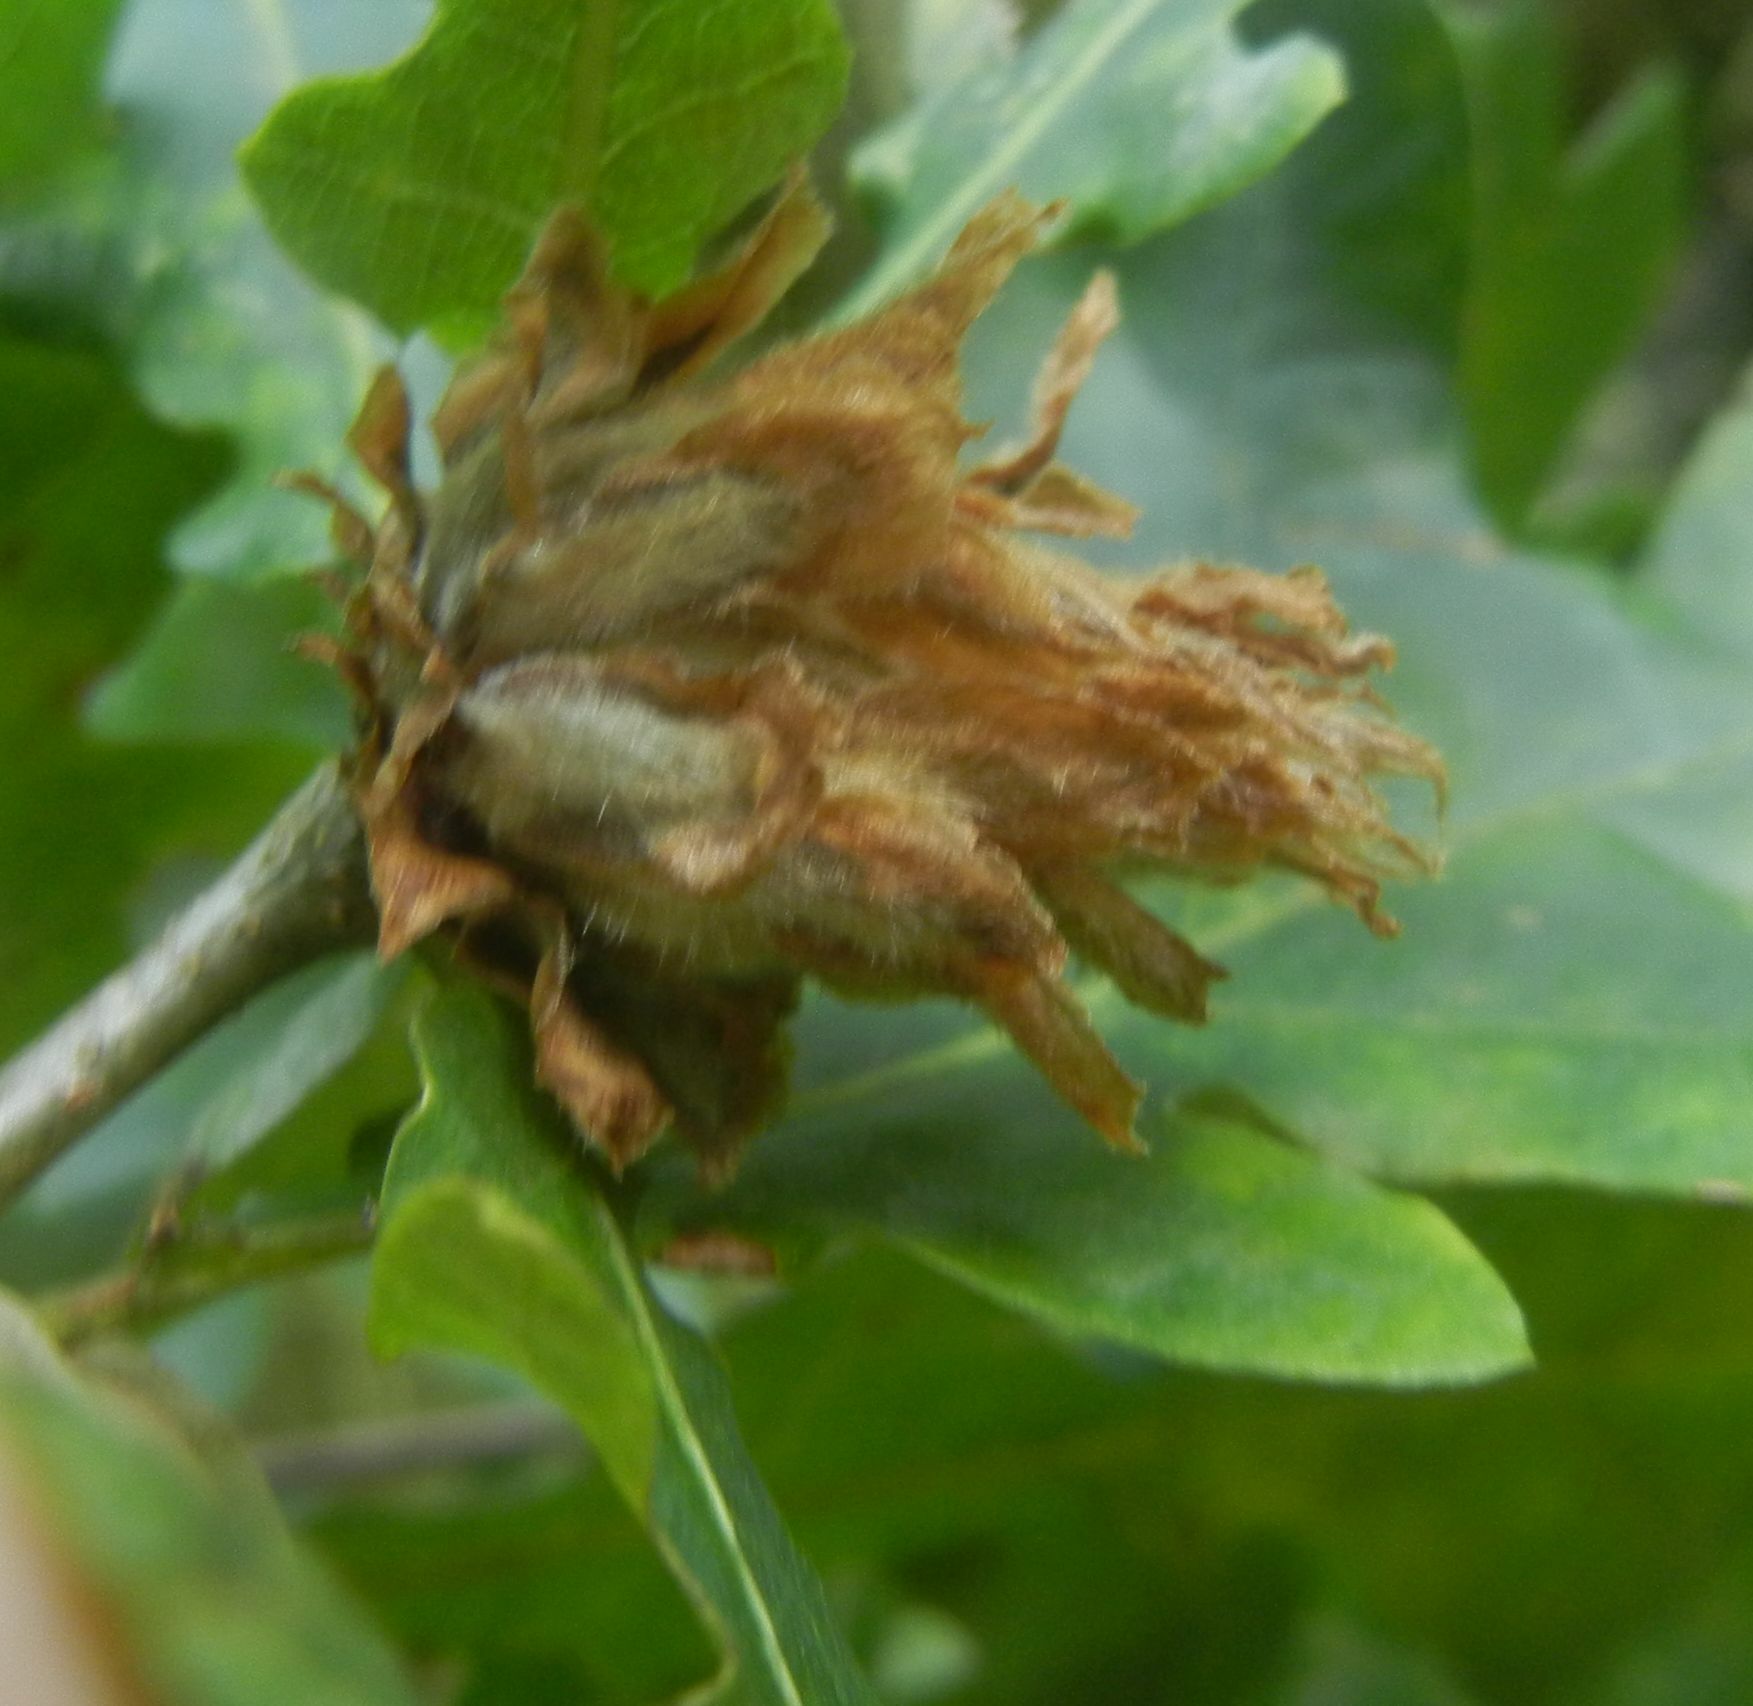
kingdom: Animalia
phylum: Arthropoda
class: Insecta
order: Hymenoptera
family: Cynipidae
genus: Andricus
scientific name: Andricus foecundatrix
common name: Artichoke gall
